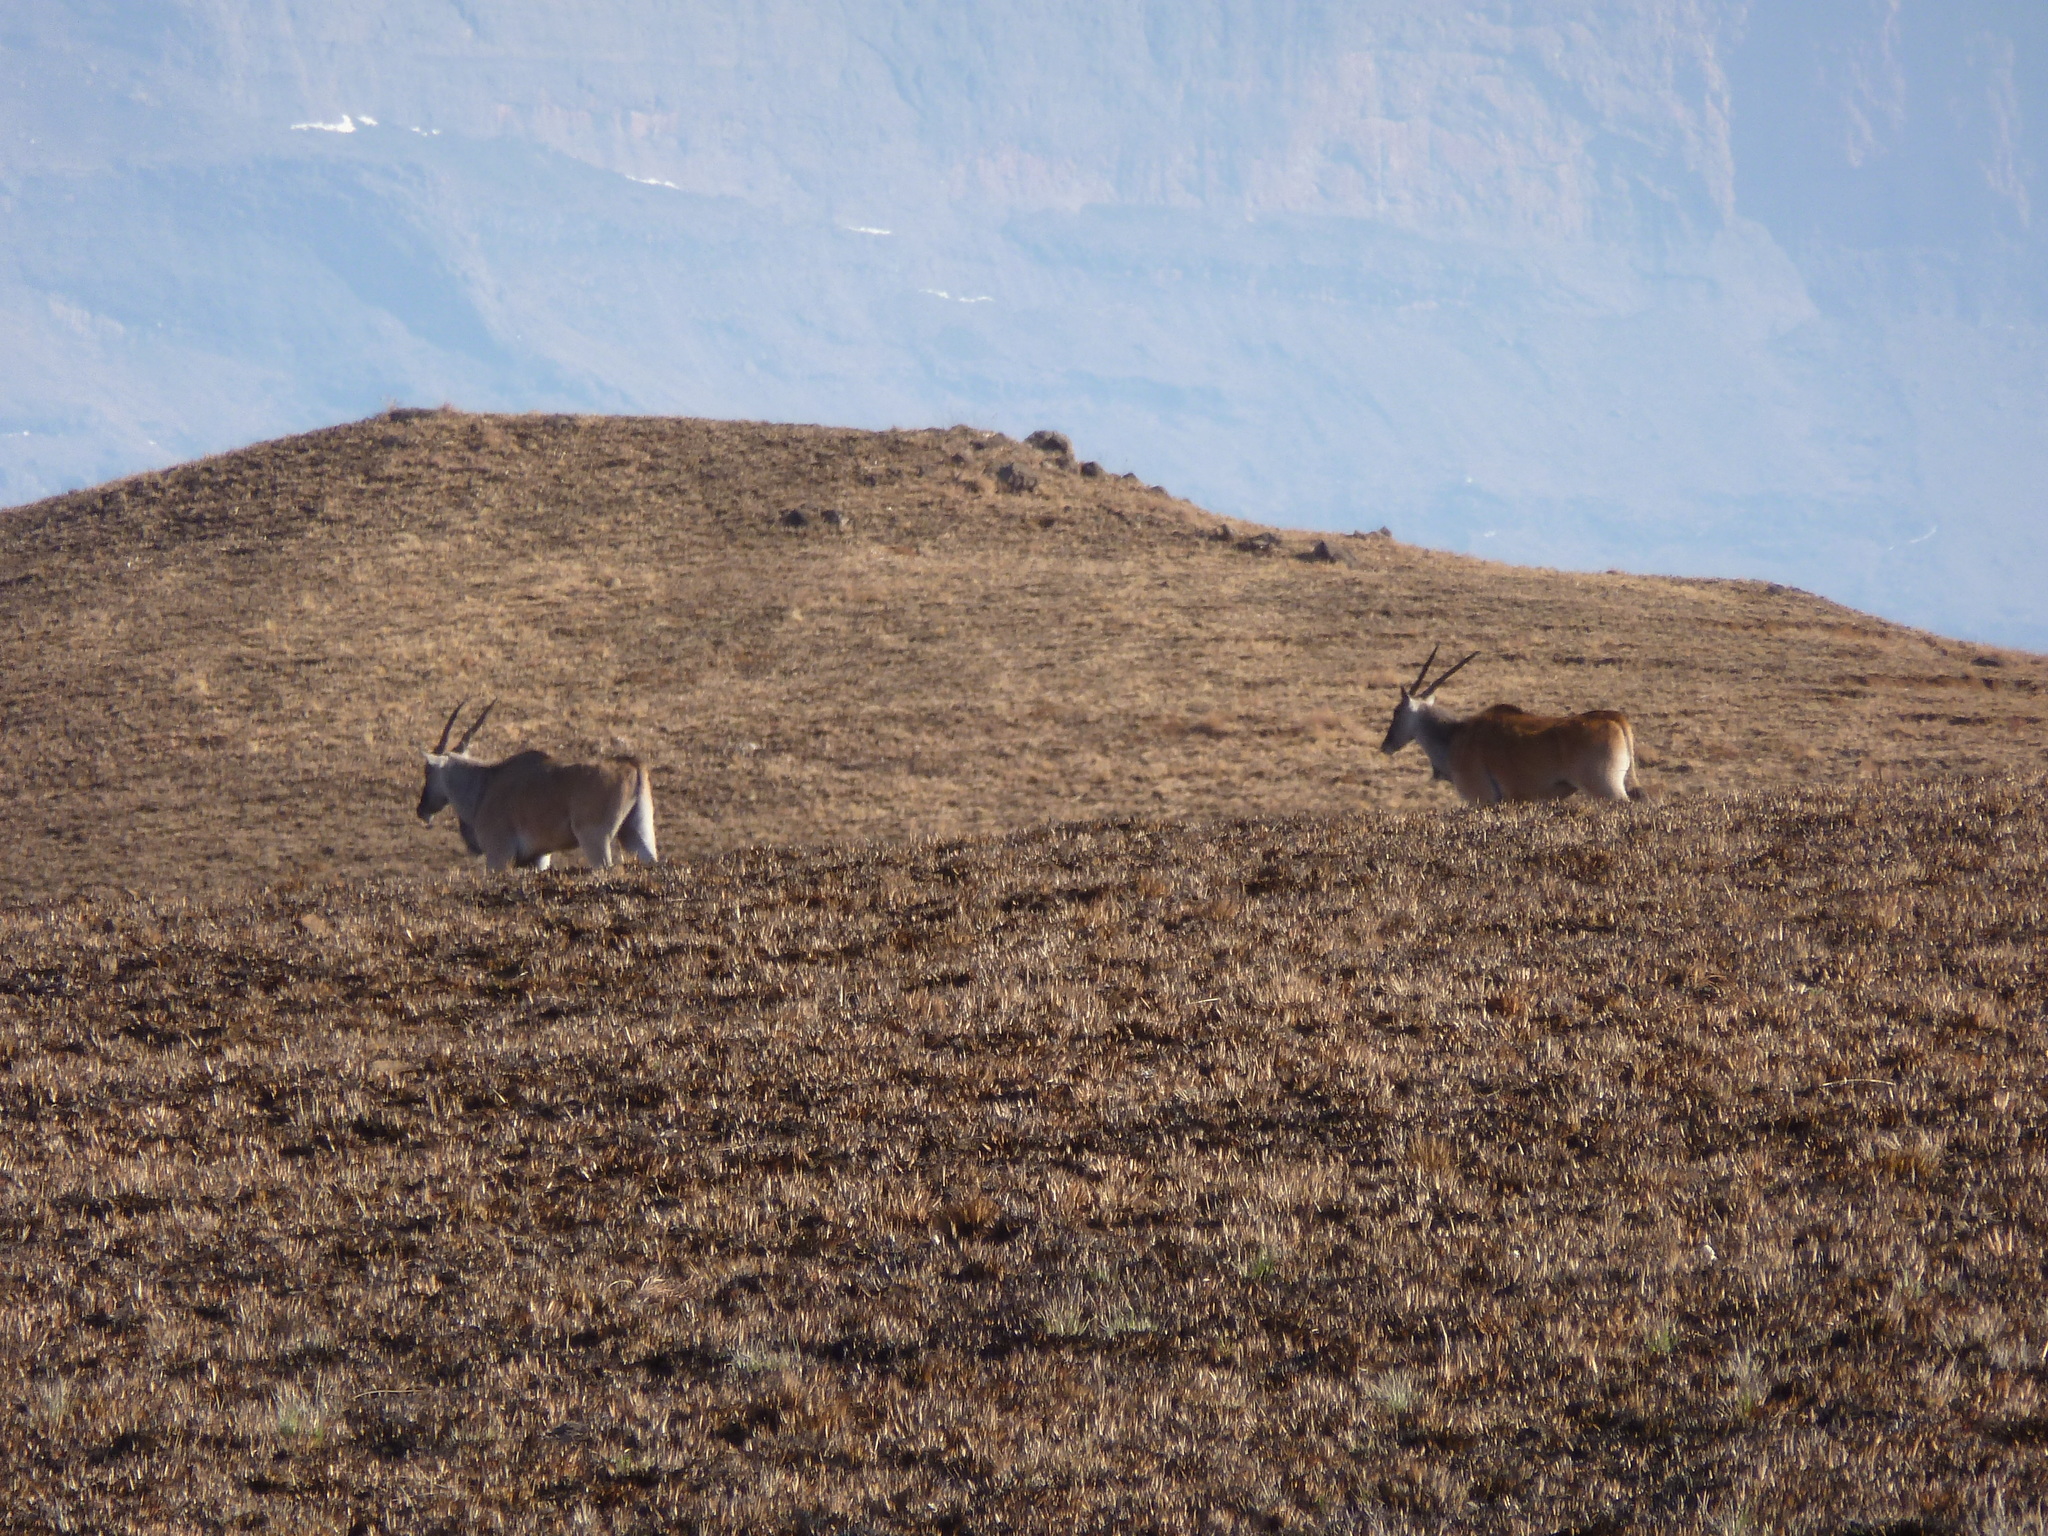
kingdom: Animalia
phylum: Chordata
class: Mammalia
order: Artiodactyla
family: Bovidae
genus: Taurotragus
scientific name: Taurotragus oryx
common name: Common eland
